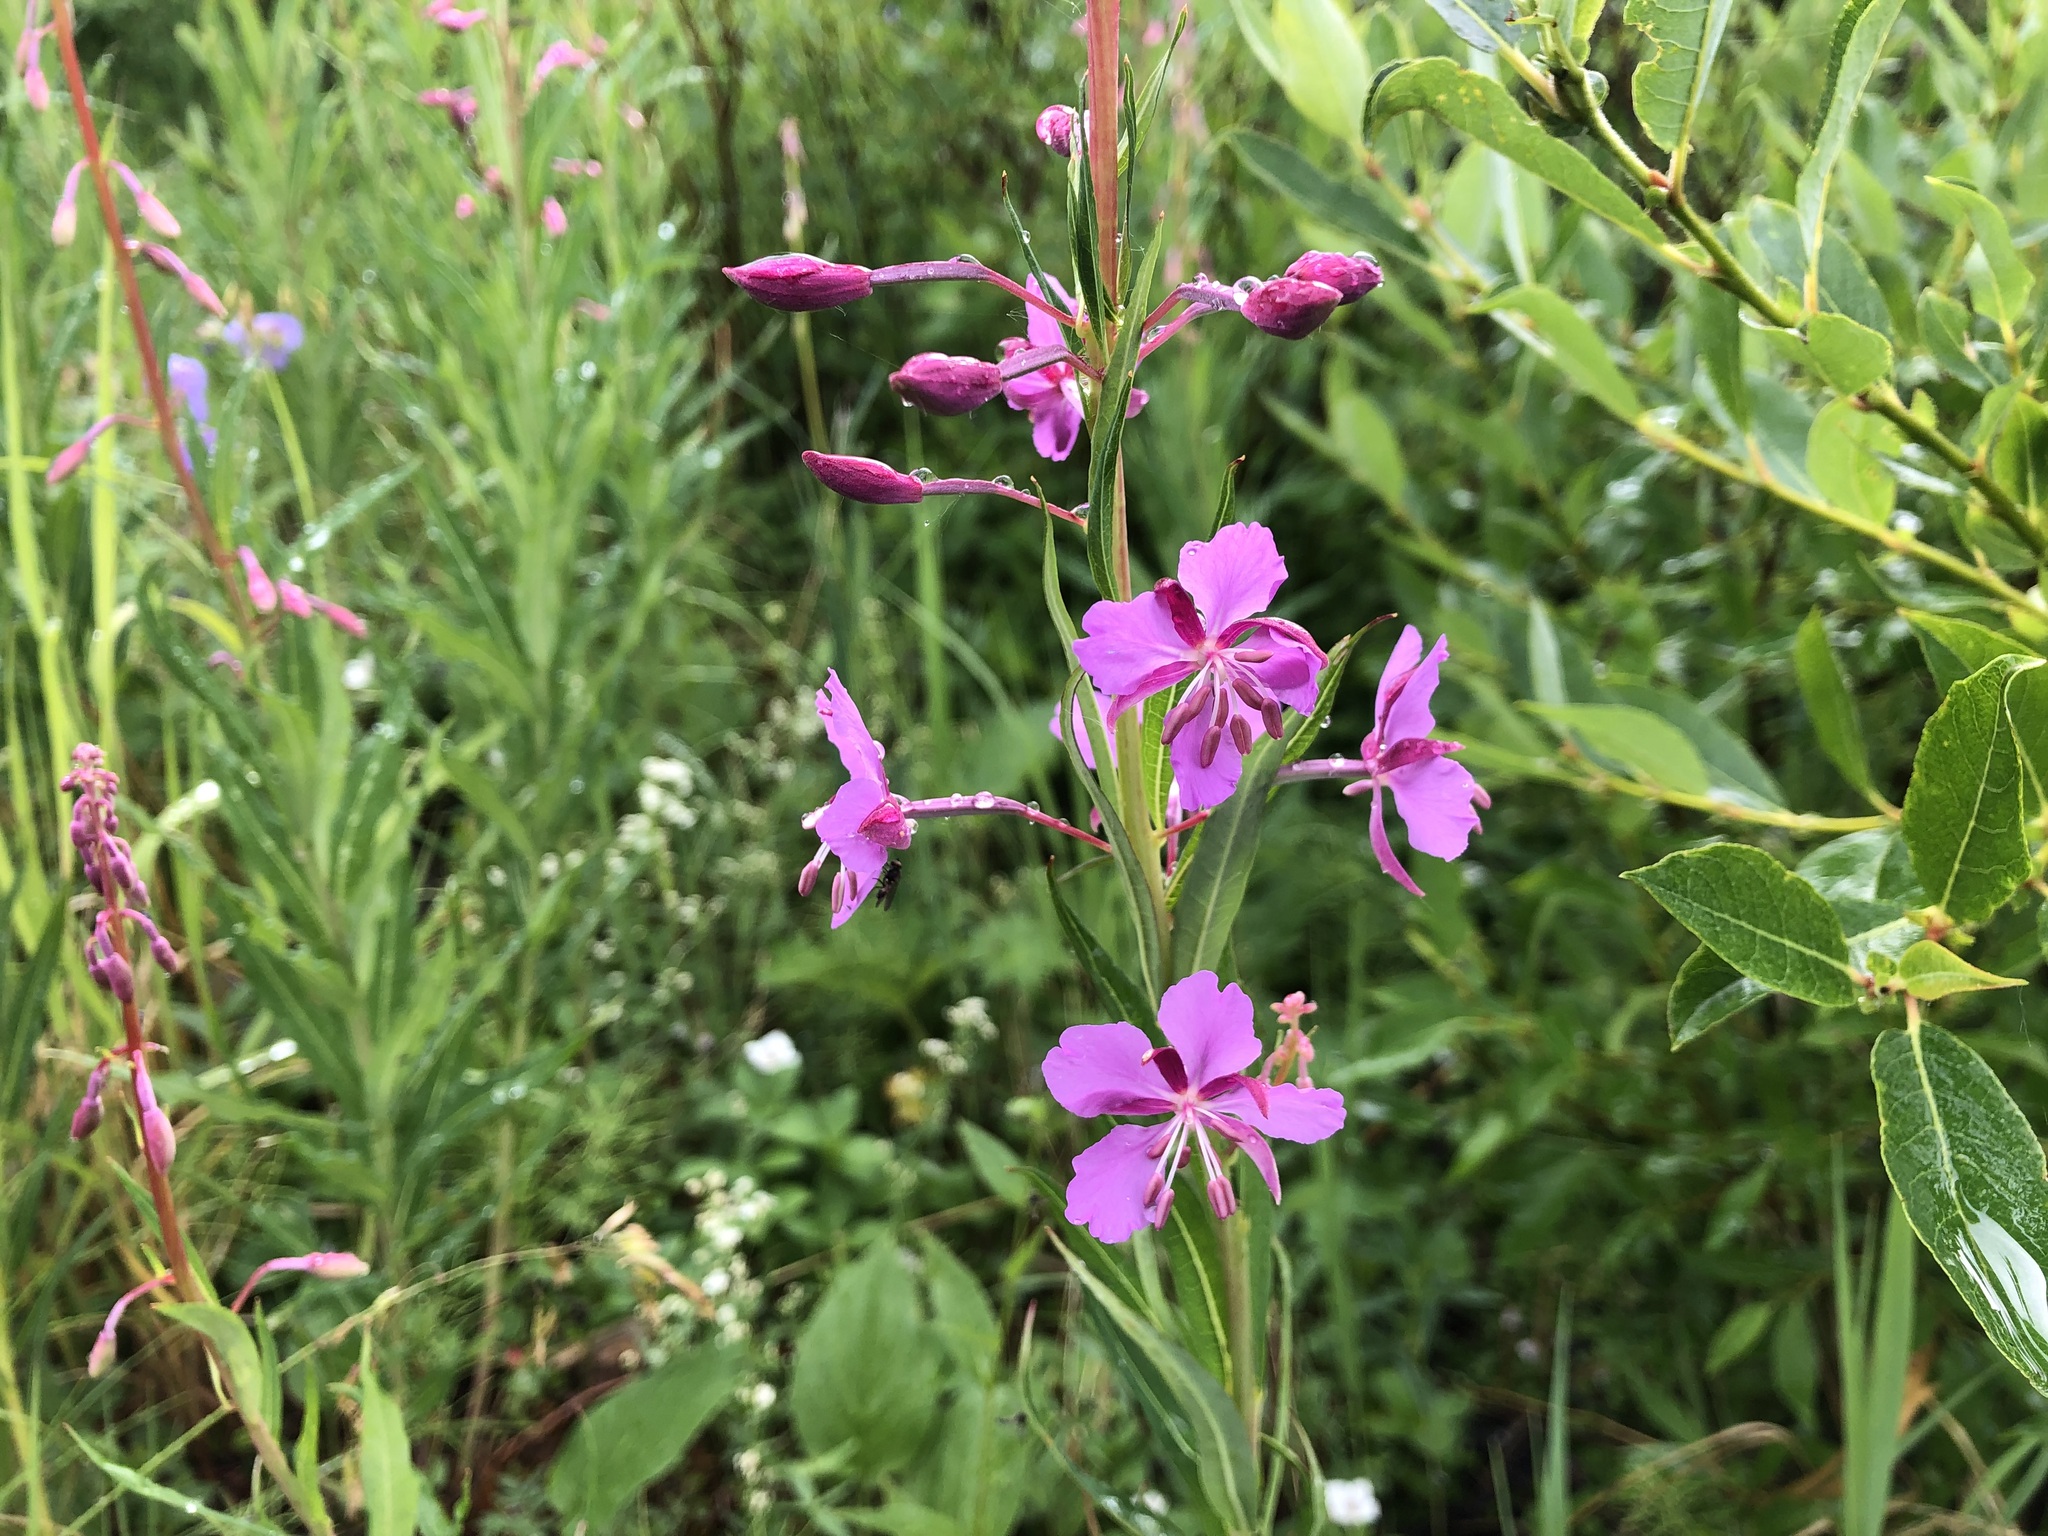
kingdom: Plantae
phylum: Tracheophyta
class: Magnoliopsida
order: Myrtales
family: Onagraceae
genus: Chamaenerion
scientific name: Chamaenerion angustifolium
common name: Fireweed
